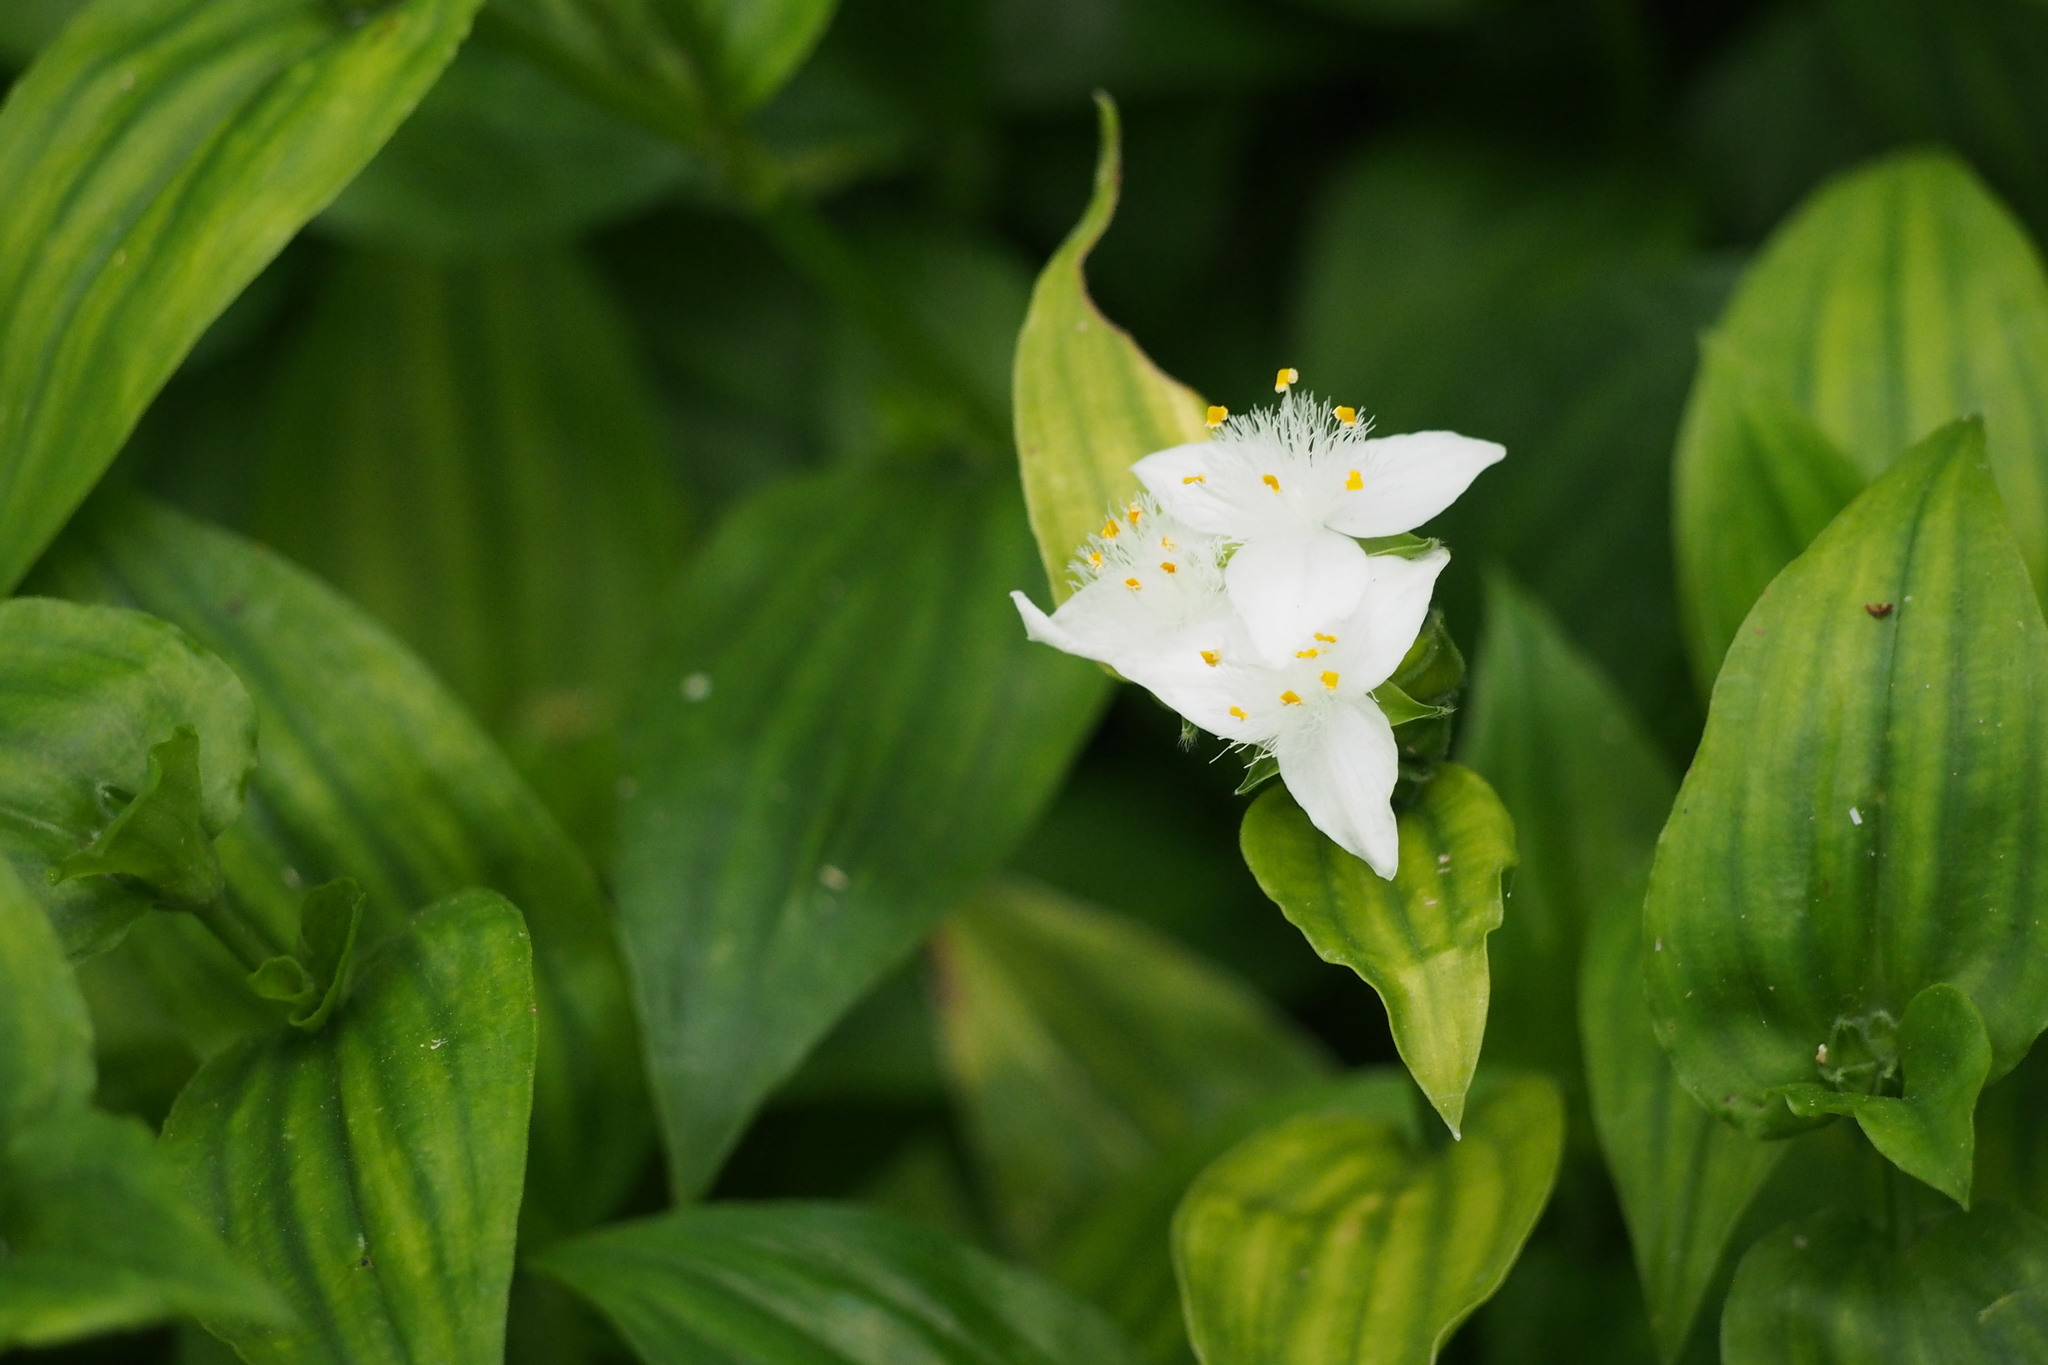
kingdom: Plantae
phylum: Tracheophyta
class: Liliopsida
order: Commelinales
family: Commelinaceae
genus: Tradescantia
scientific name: Tradescantia fluminensis
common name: Wandering-jew
